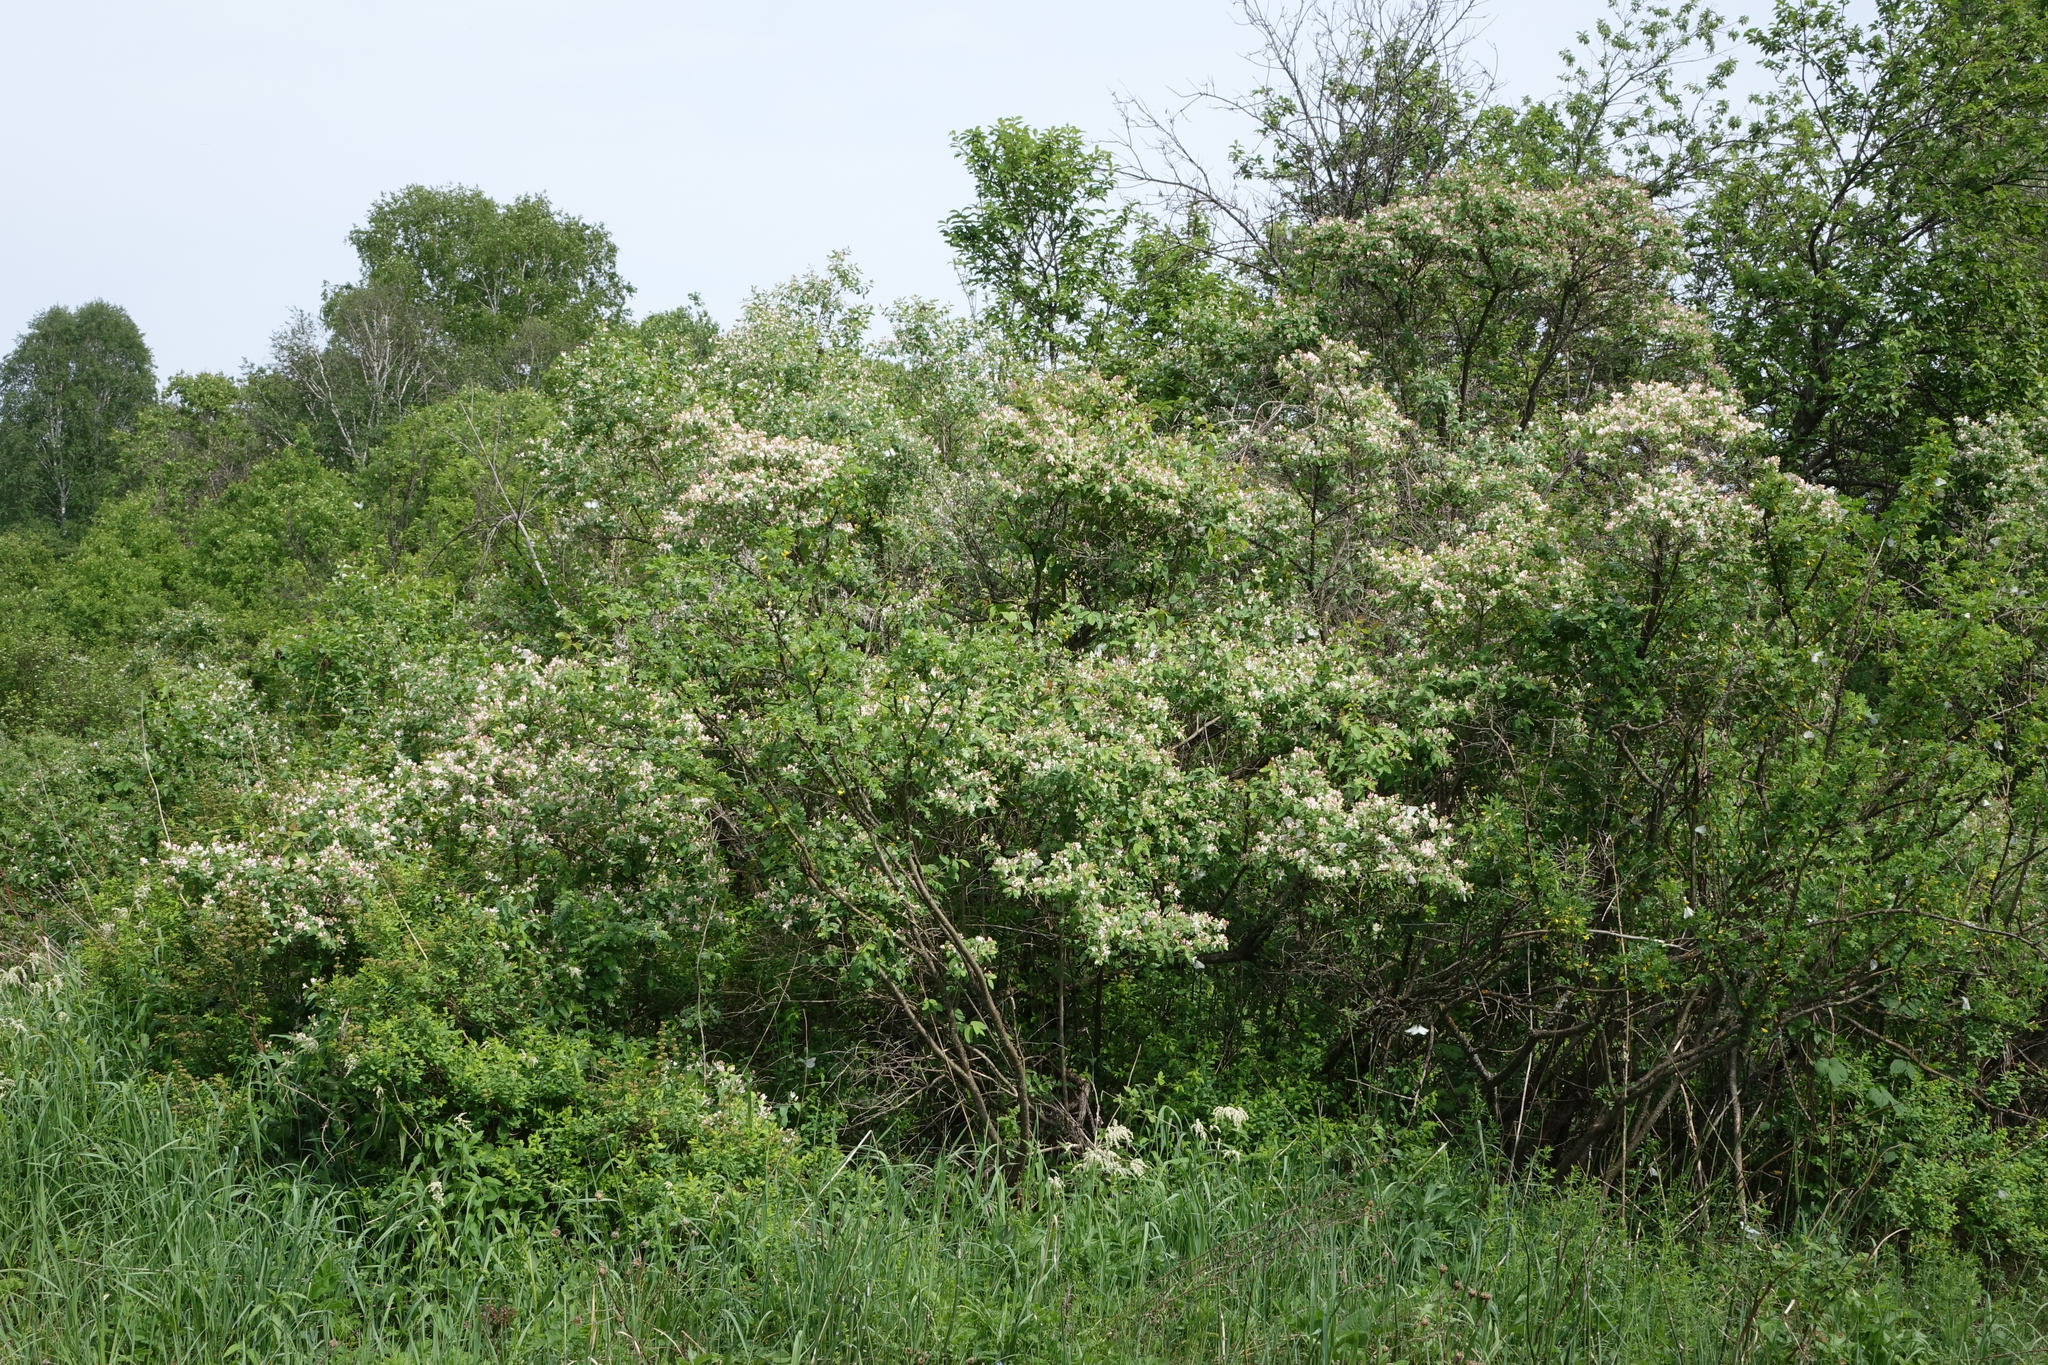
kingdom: Plantae
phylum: Tracheophyta
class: Magnoliopsida
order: Dipsacales
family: Caprifoliaceae
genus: Lonicera
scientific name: Lonicera tatarica
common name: Tatarian honeysuckle
